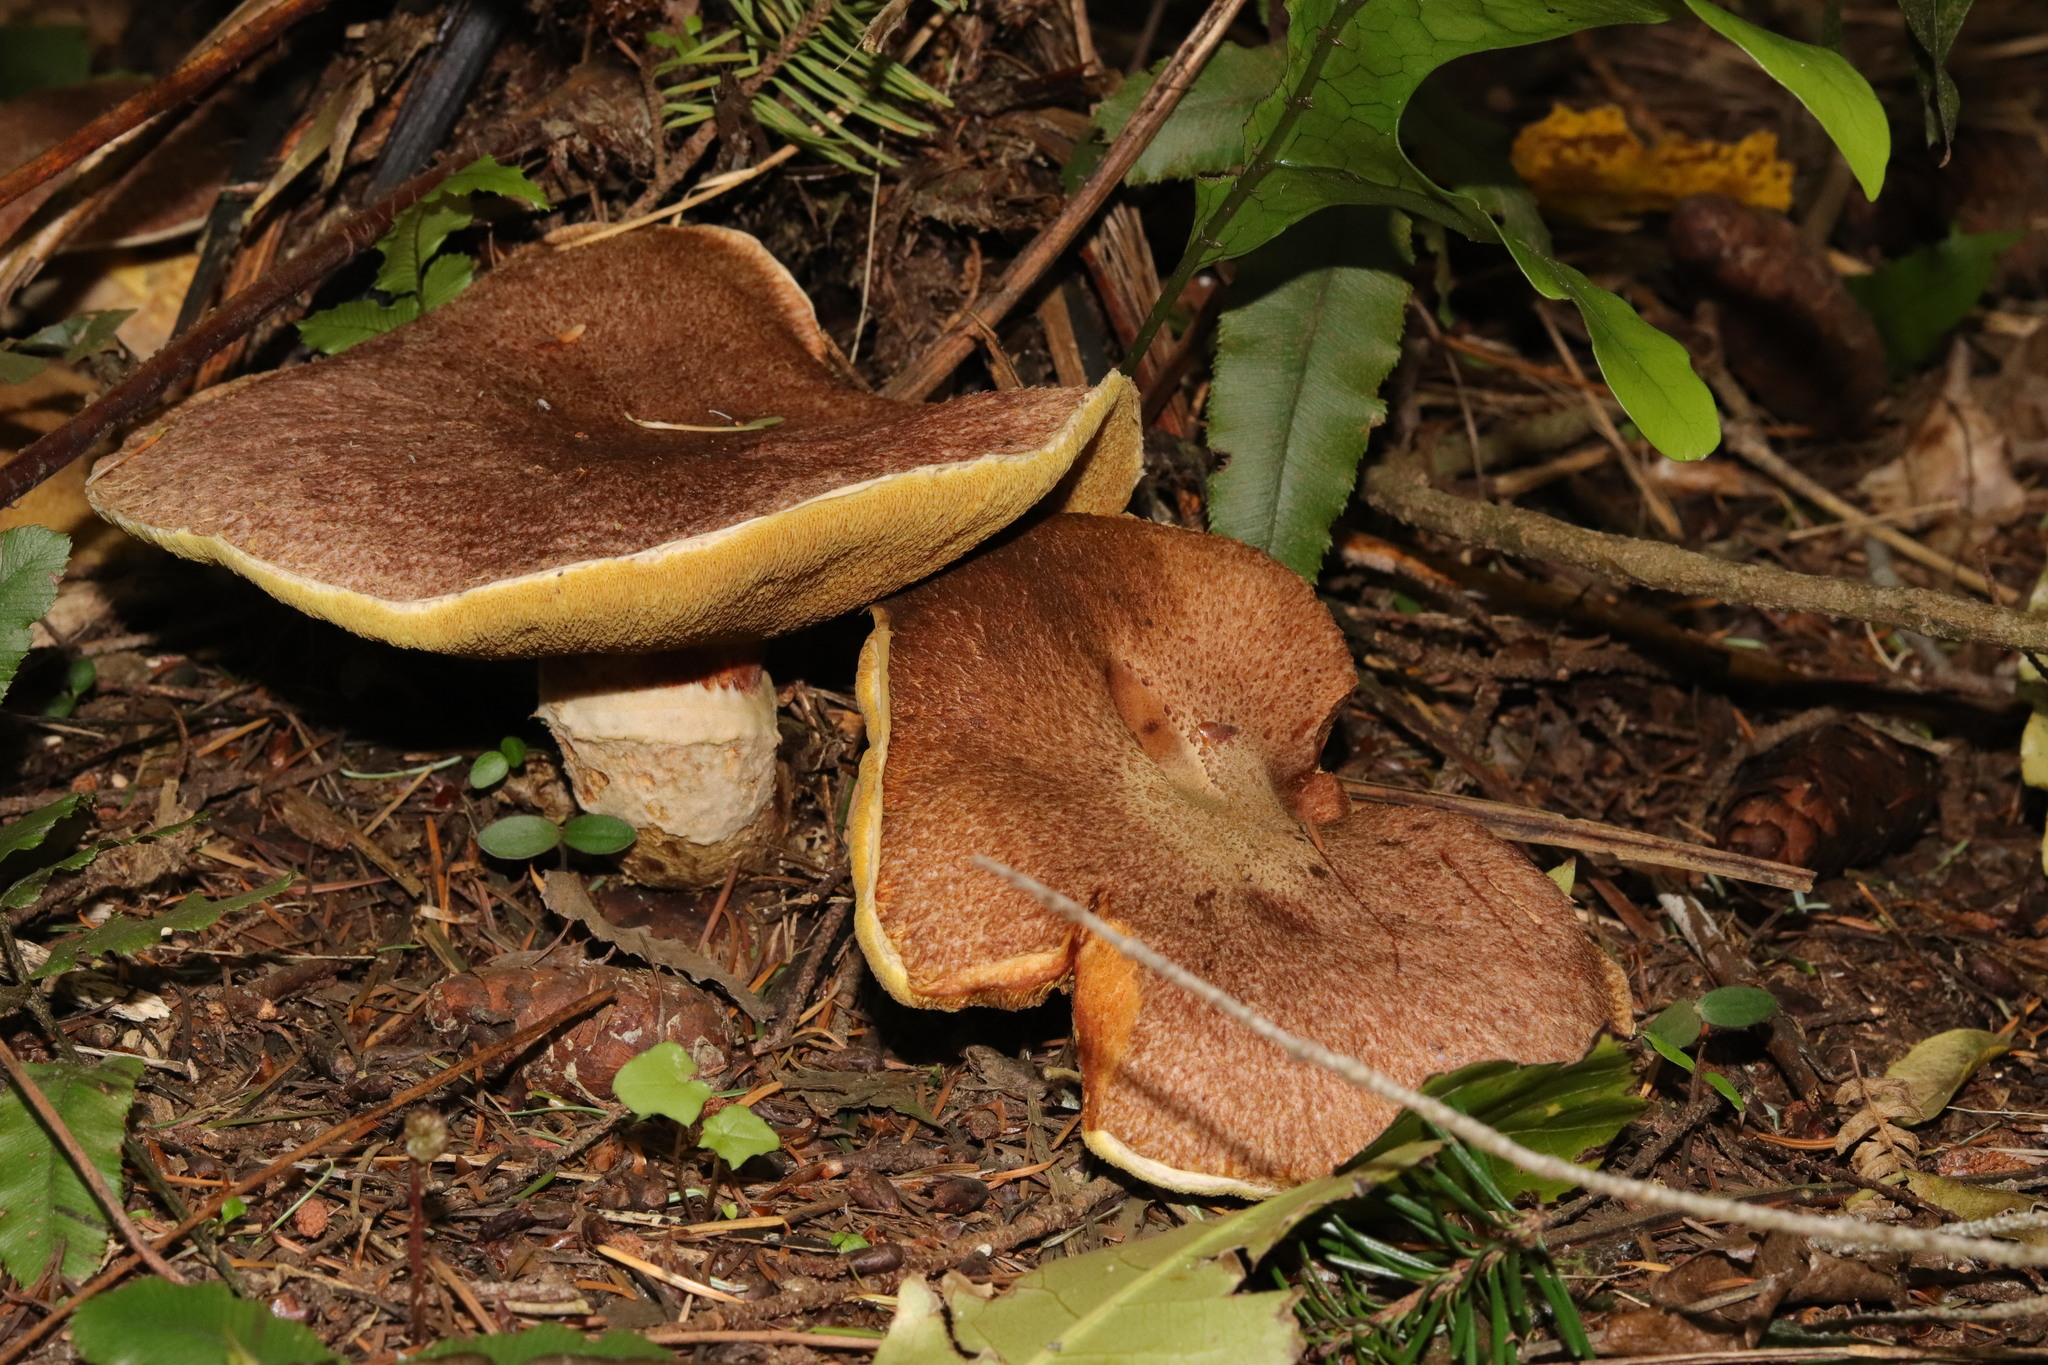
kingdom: Fungi
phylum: Basidiomycota
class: Agaricomycetes
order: Boletales
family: Suillaceae
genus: Suillus
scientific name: Suillus lakei
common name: Western painted suillus
